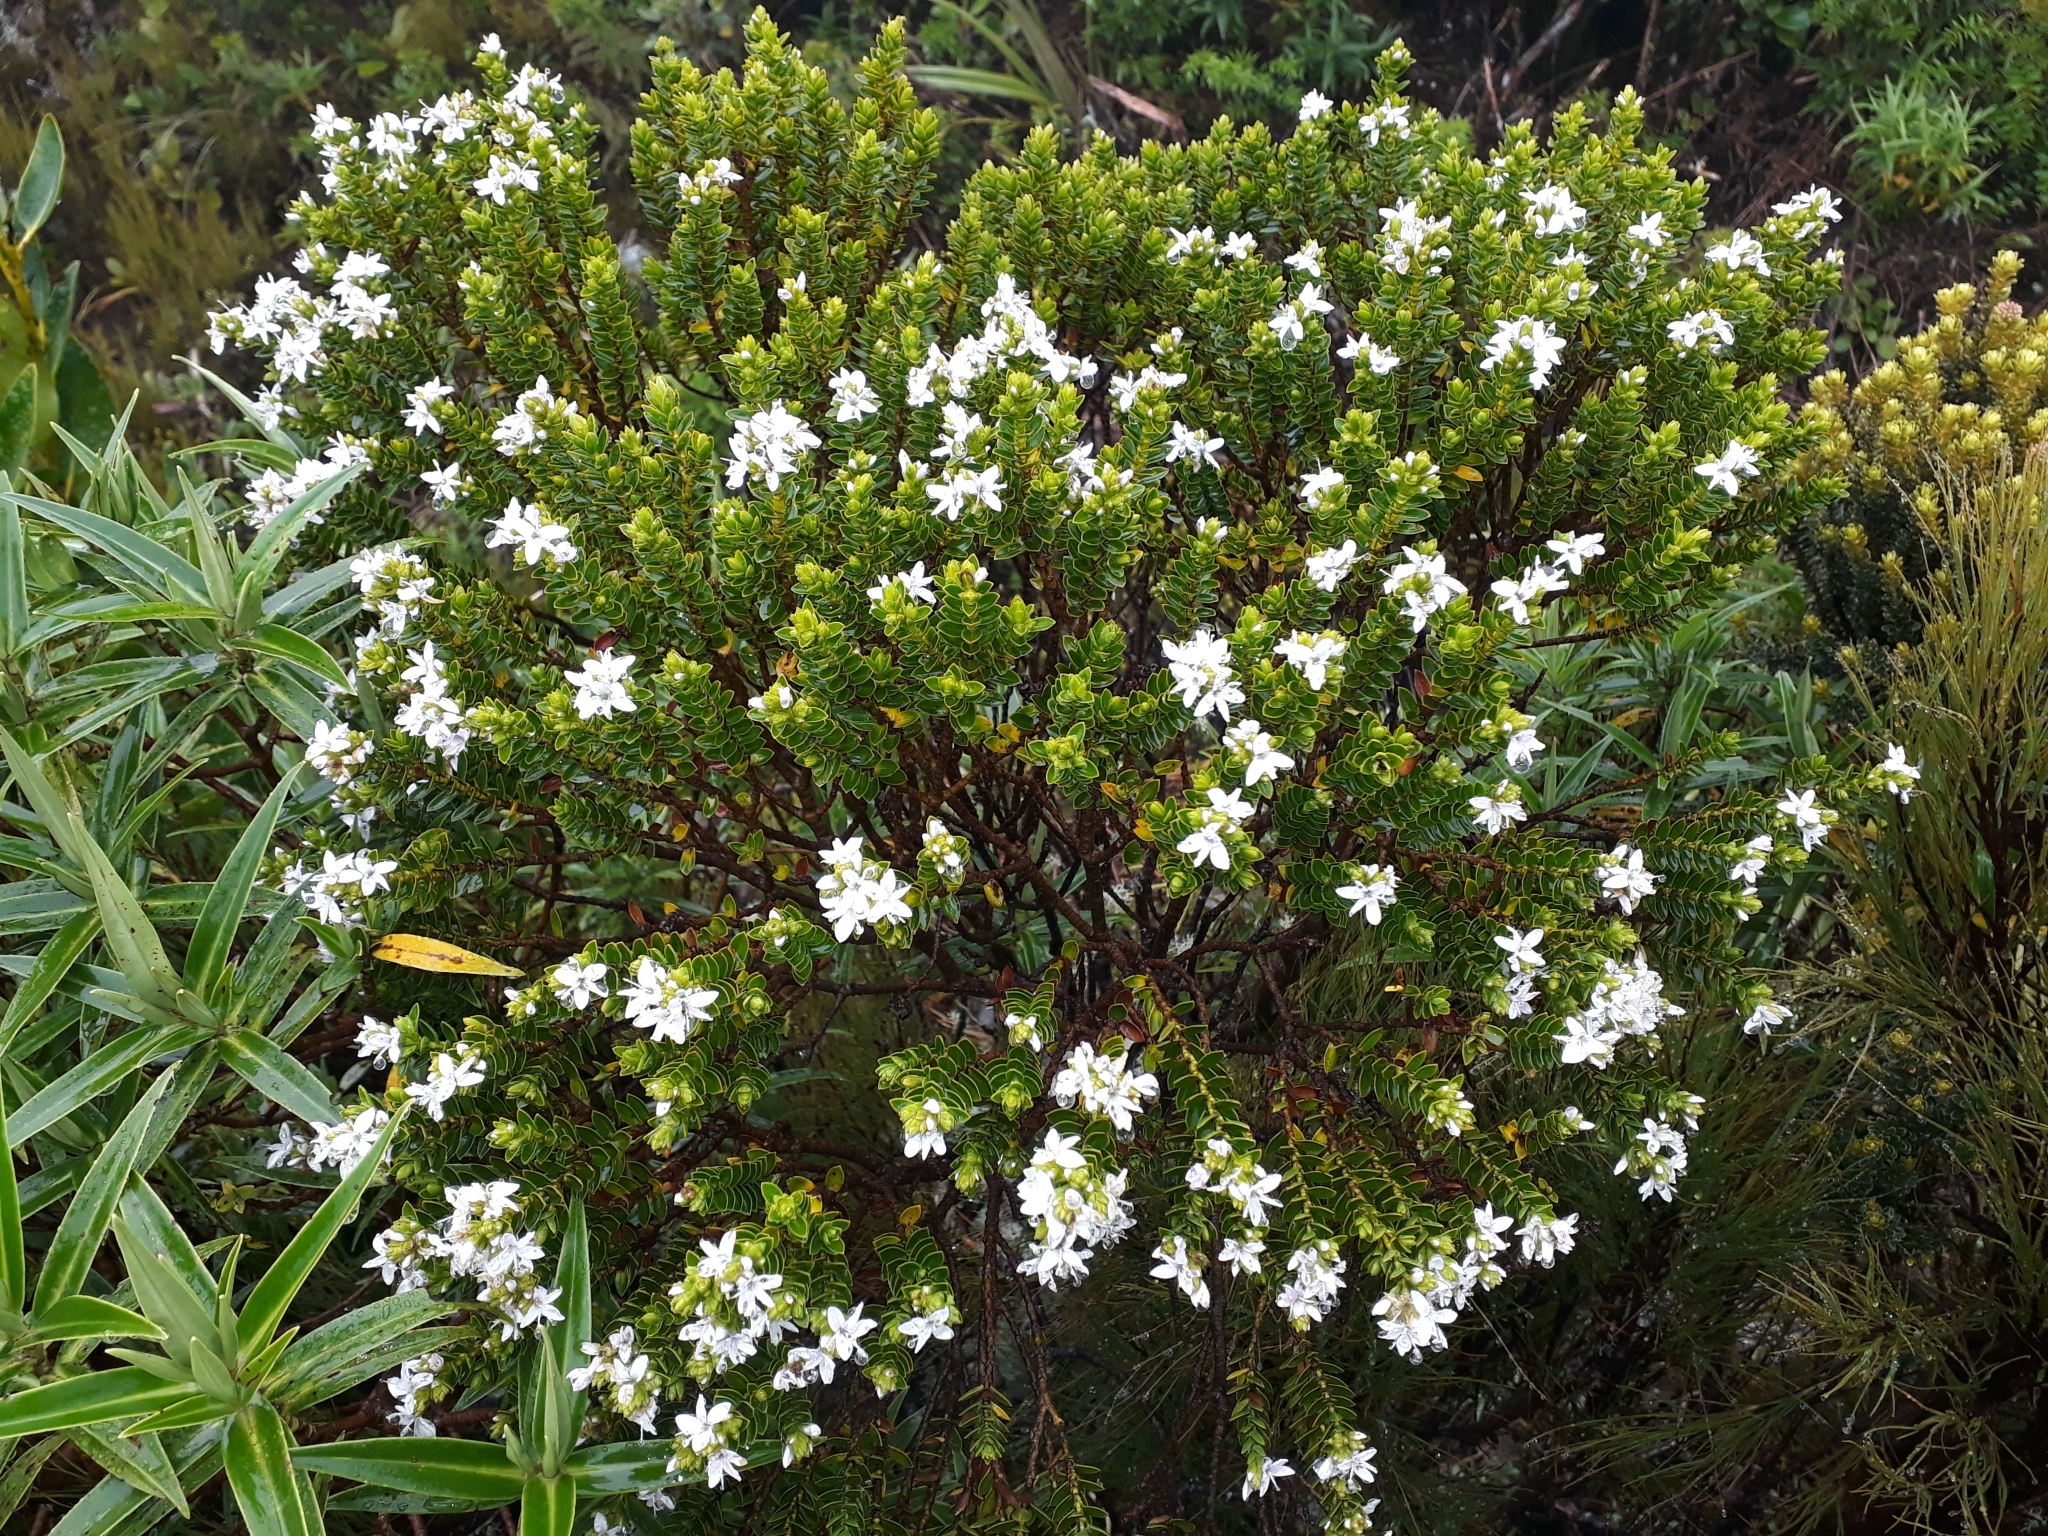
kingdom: Plantae
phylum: Tracheophyta
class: Magnoliopsida
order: Lamiales
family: Plantaginaceae
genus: Veronica
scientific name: Veronica odora
